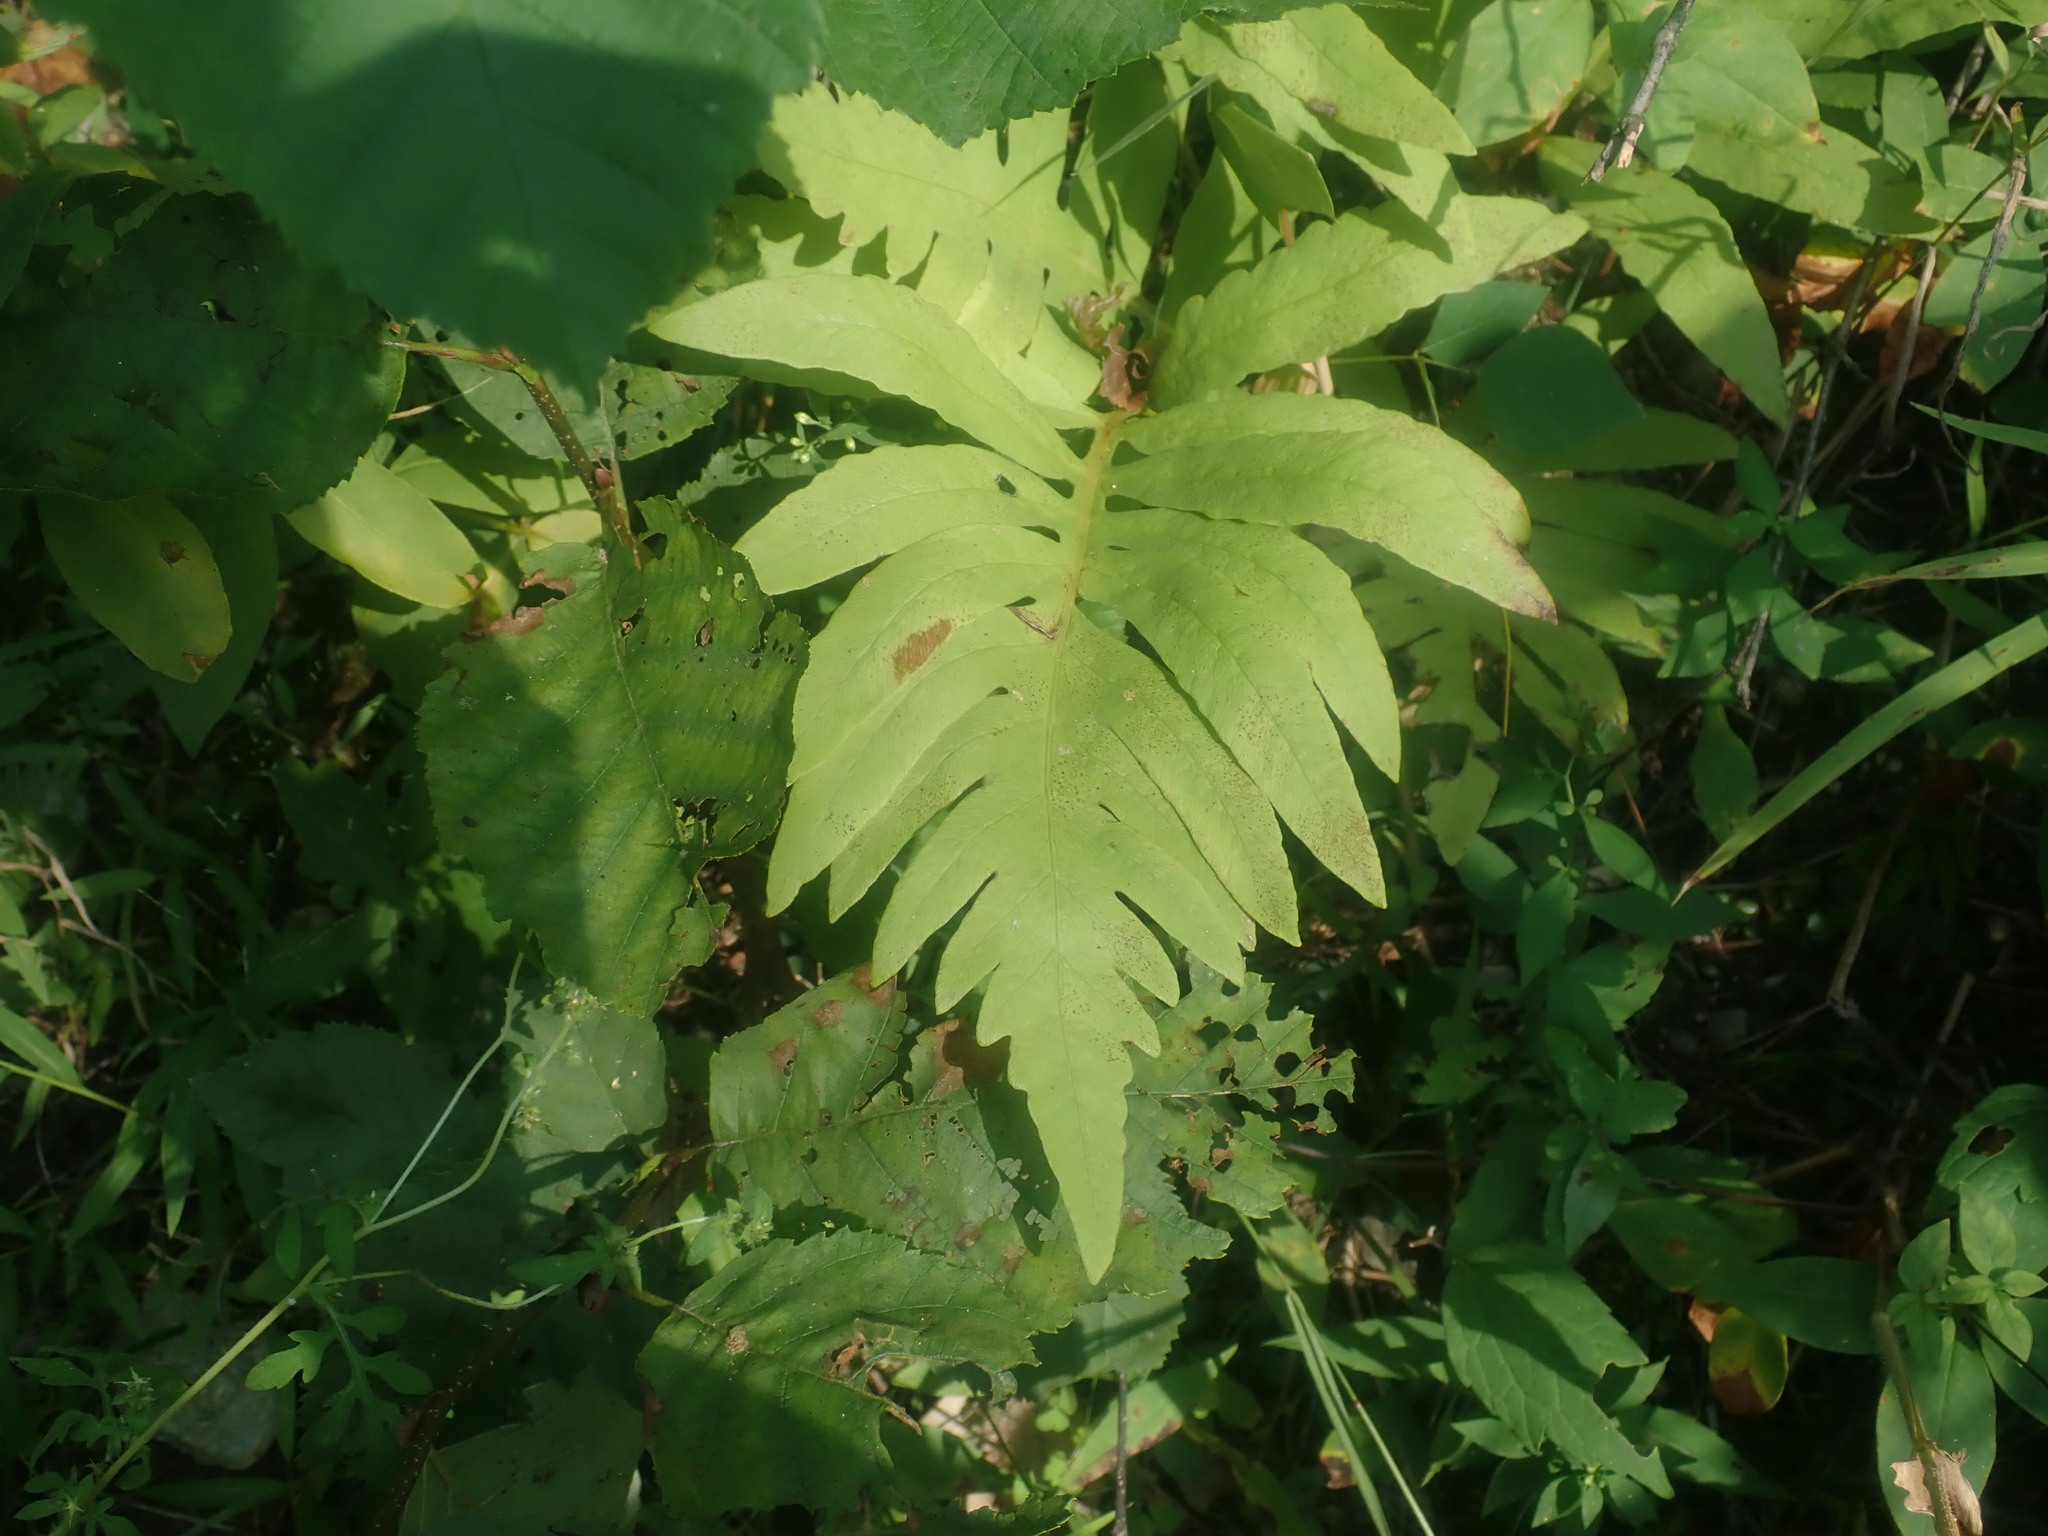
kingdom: Plantae
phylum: Tracheophyta
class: Polypodiopsida
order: Polypodiales
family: Onocleaceae
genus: Onoclea
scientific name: Onoclea sensibilis
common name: Sensitive fern
